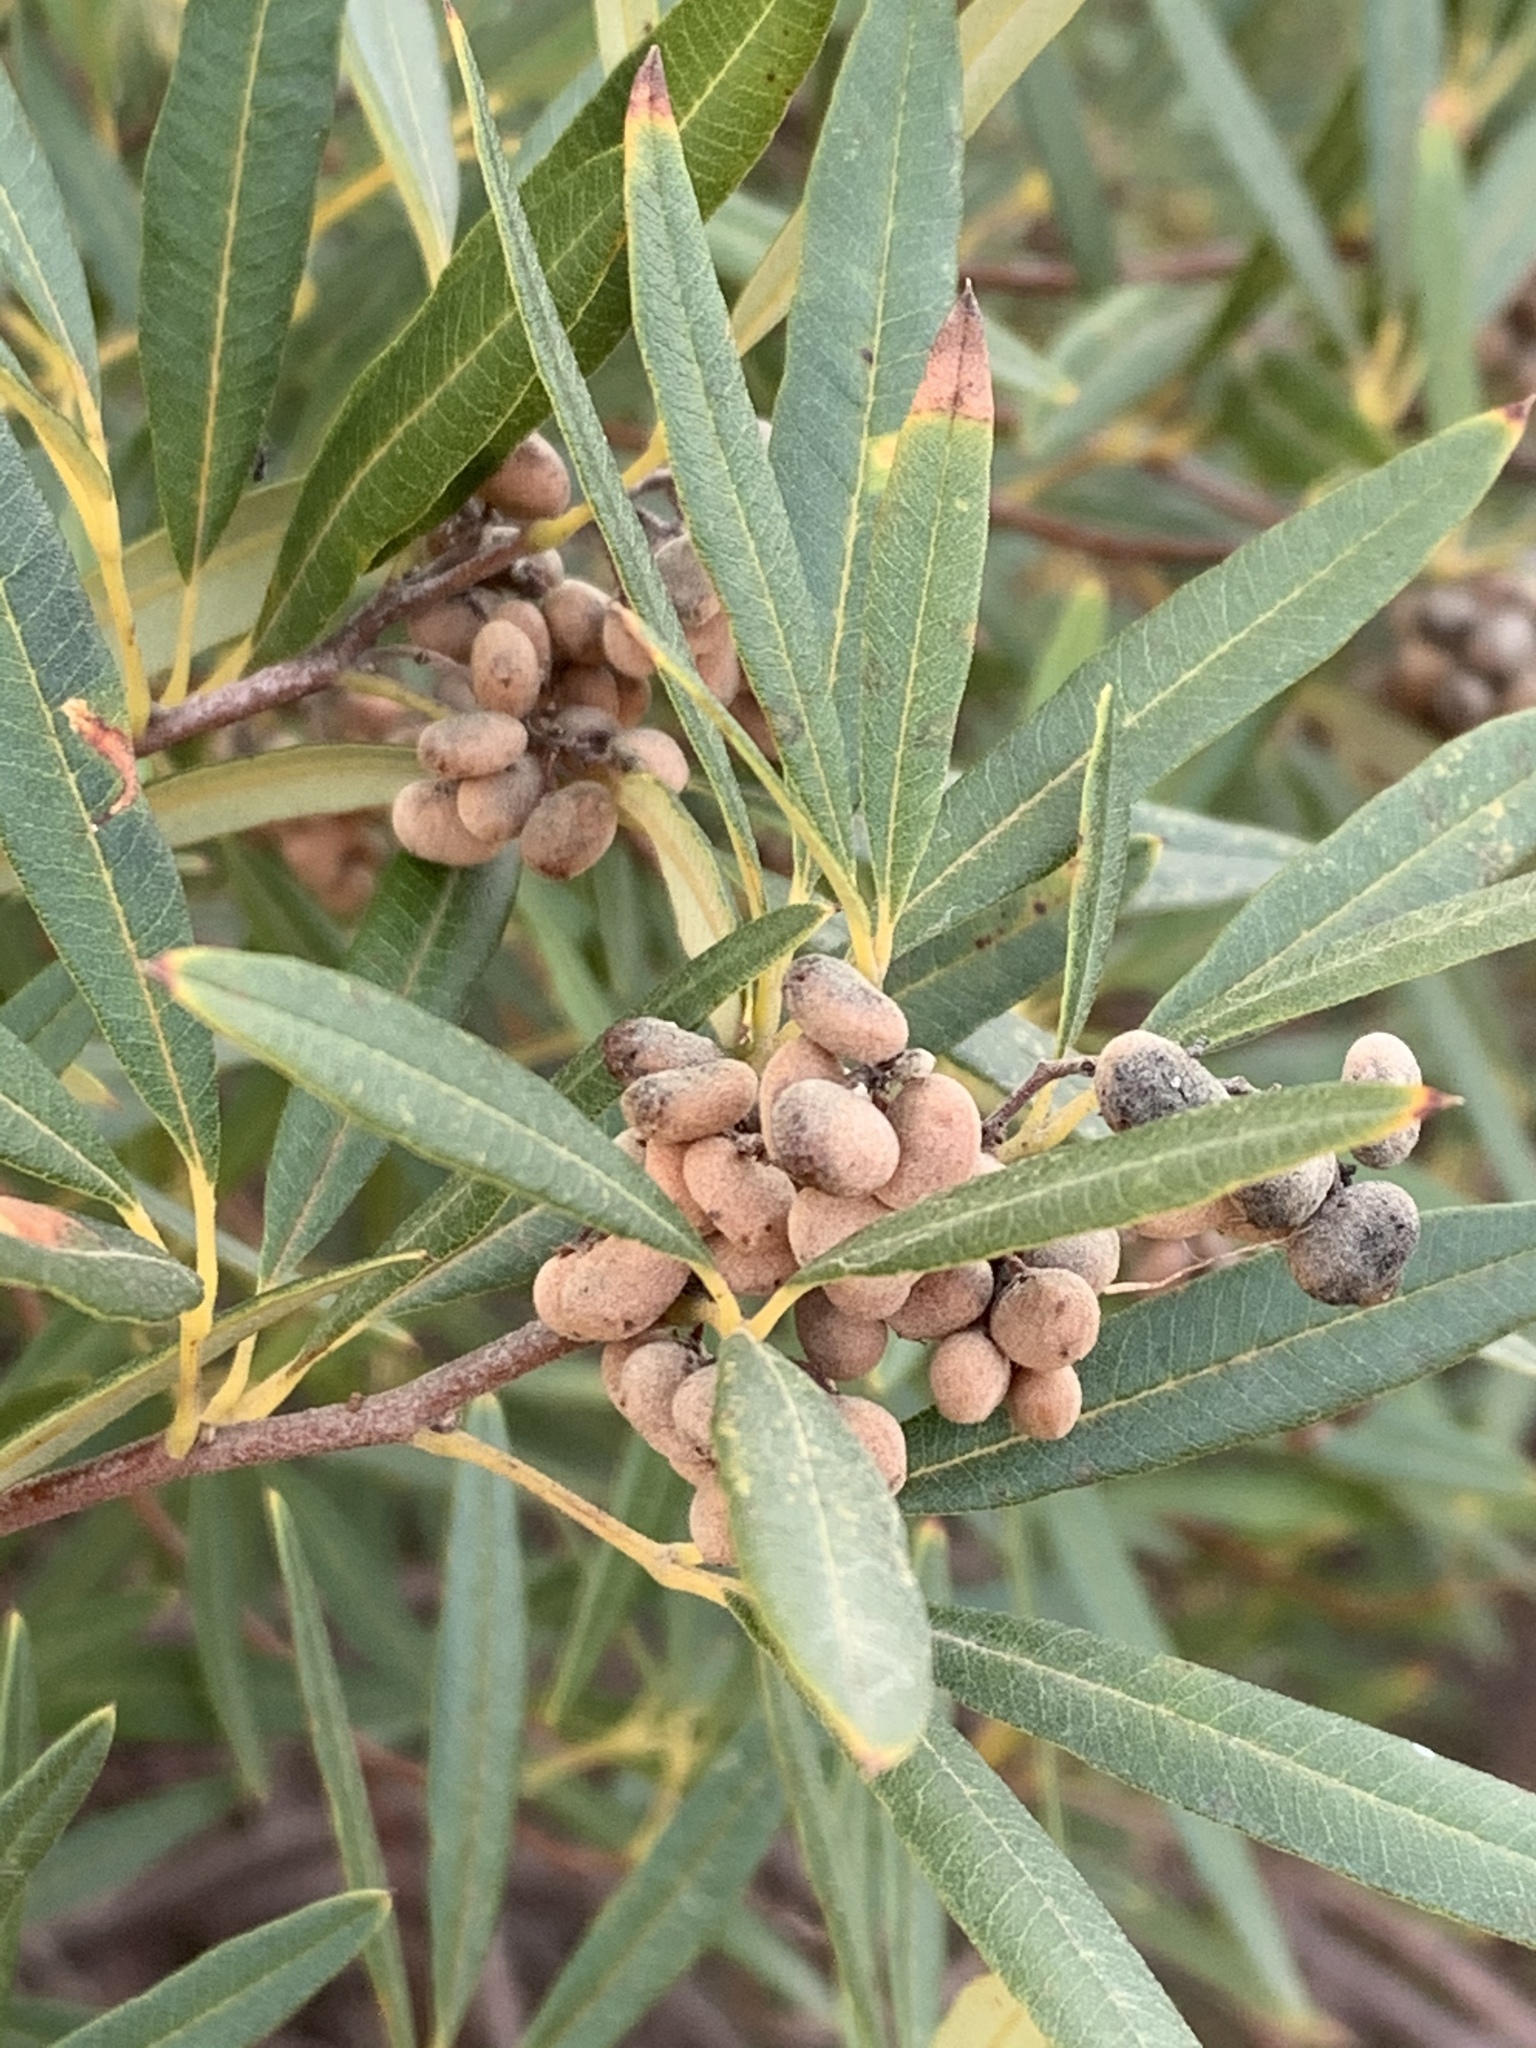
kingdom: Plantae
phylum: Tracheophyta
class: Magnoliopsida
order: Sapindales
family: Anacardiaceae
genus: Searsia
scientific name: Searsia angustifolia
